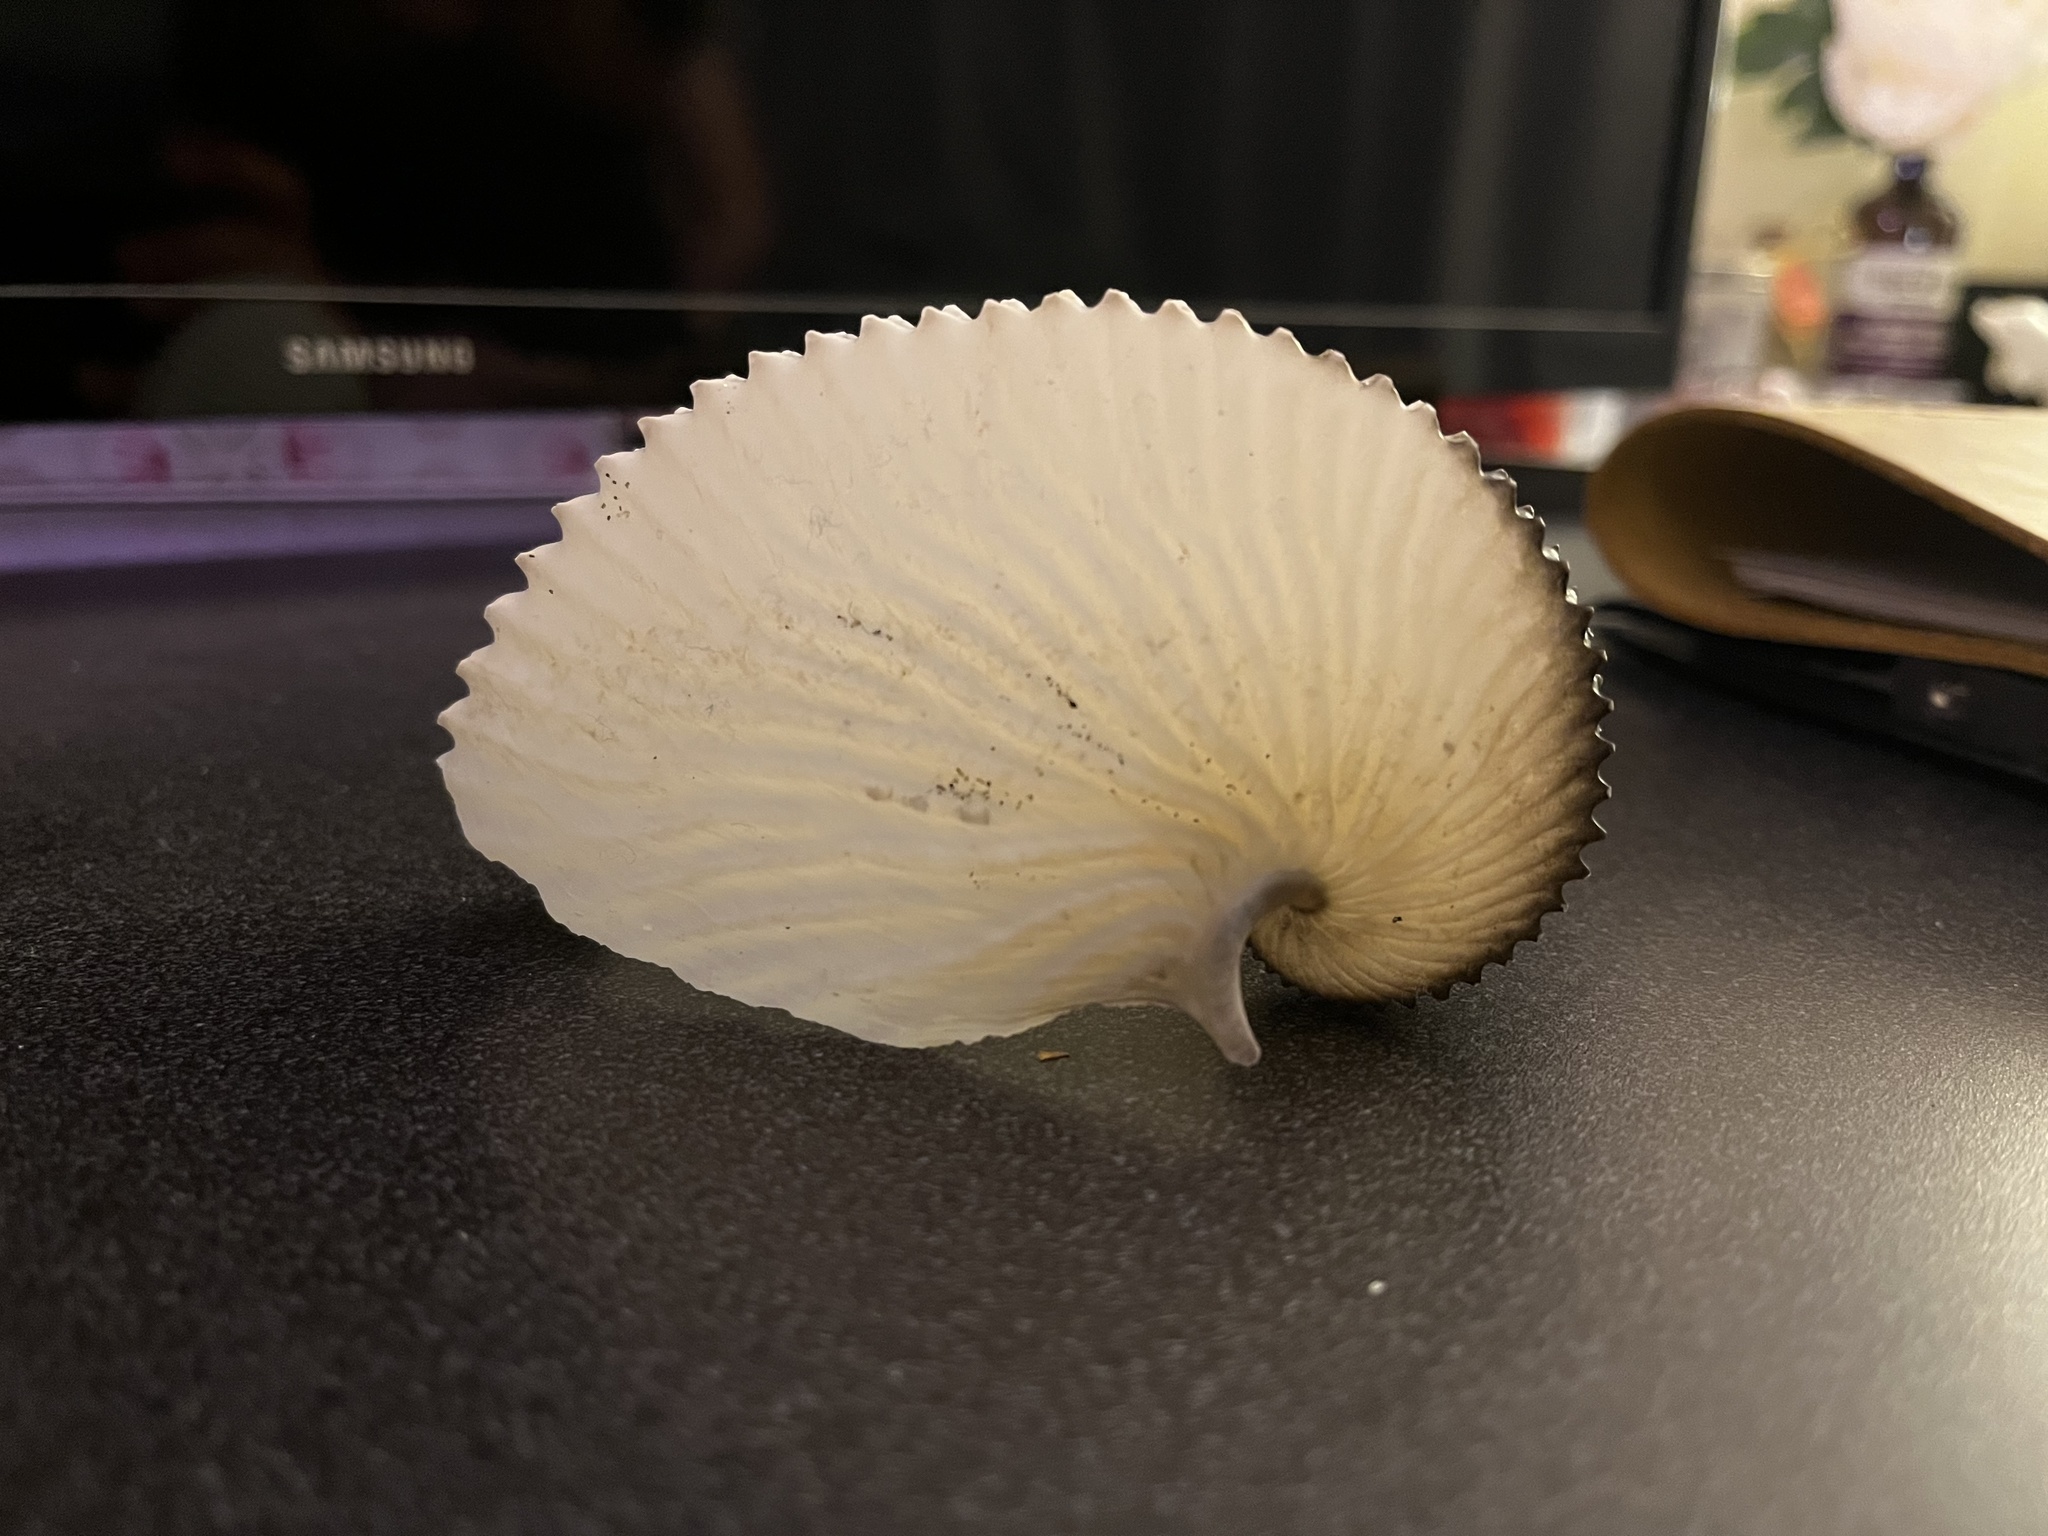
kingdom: Animalia
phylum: Mollusca
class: Cephalopoda
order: Octopoda
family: Argonautidae
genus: Argonauta
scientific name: Argonauta argo
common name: Common paper nautilus
